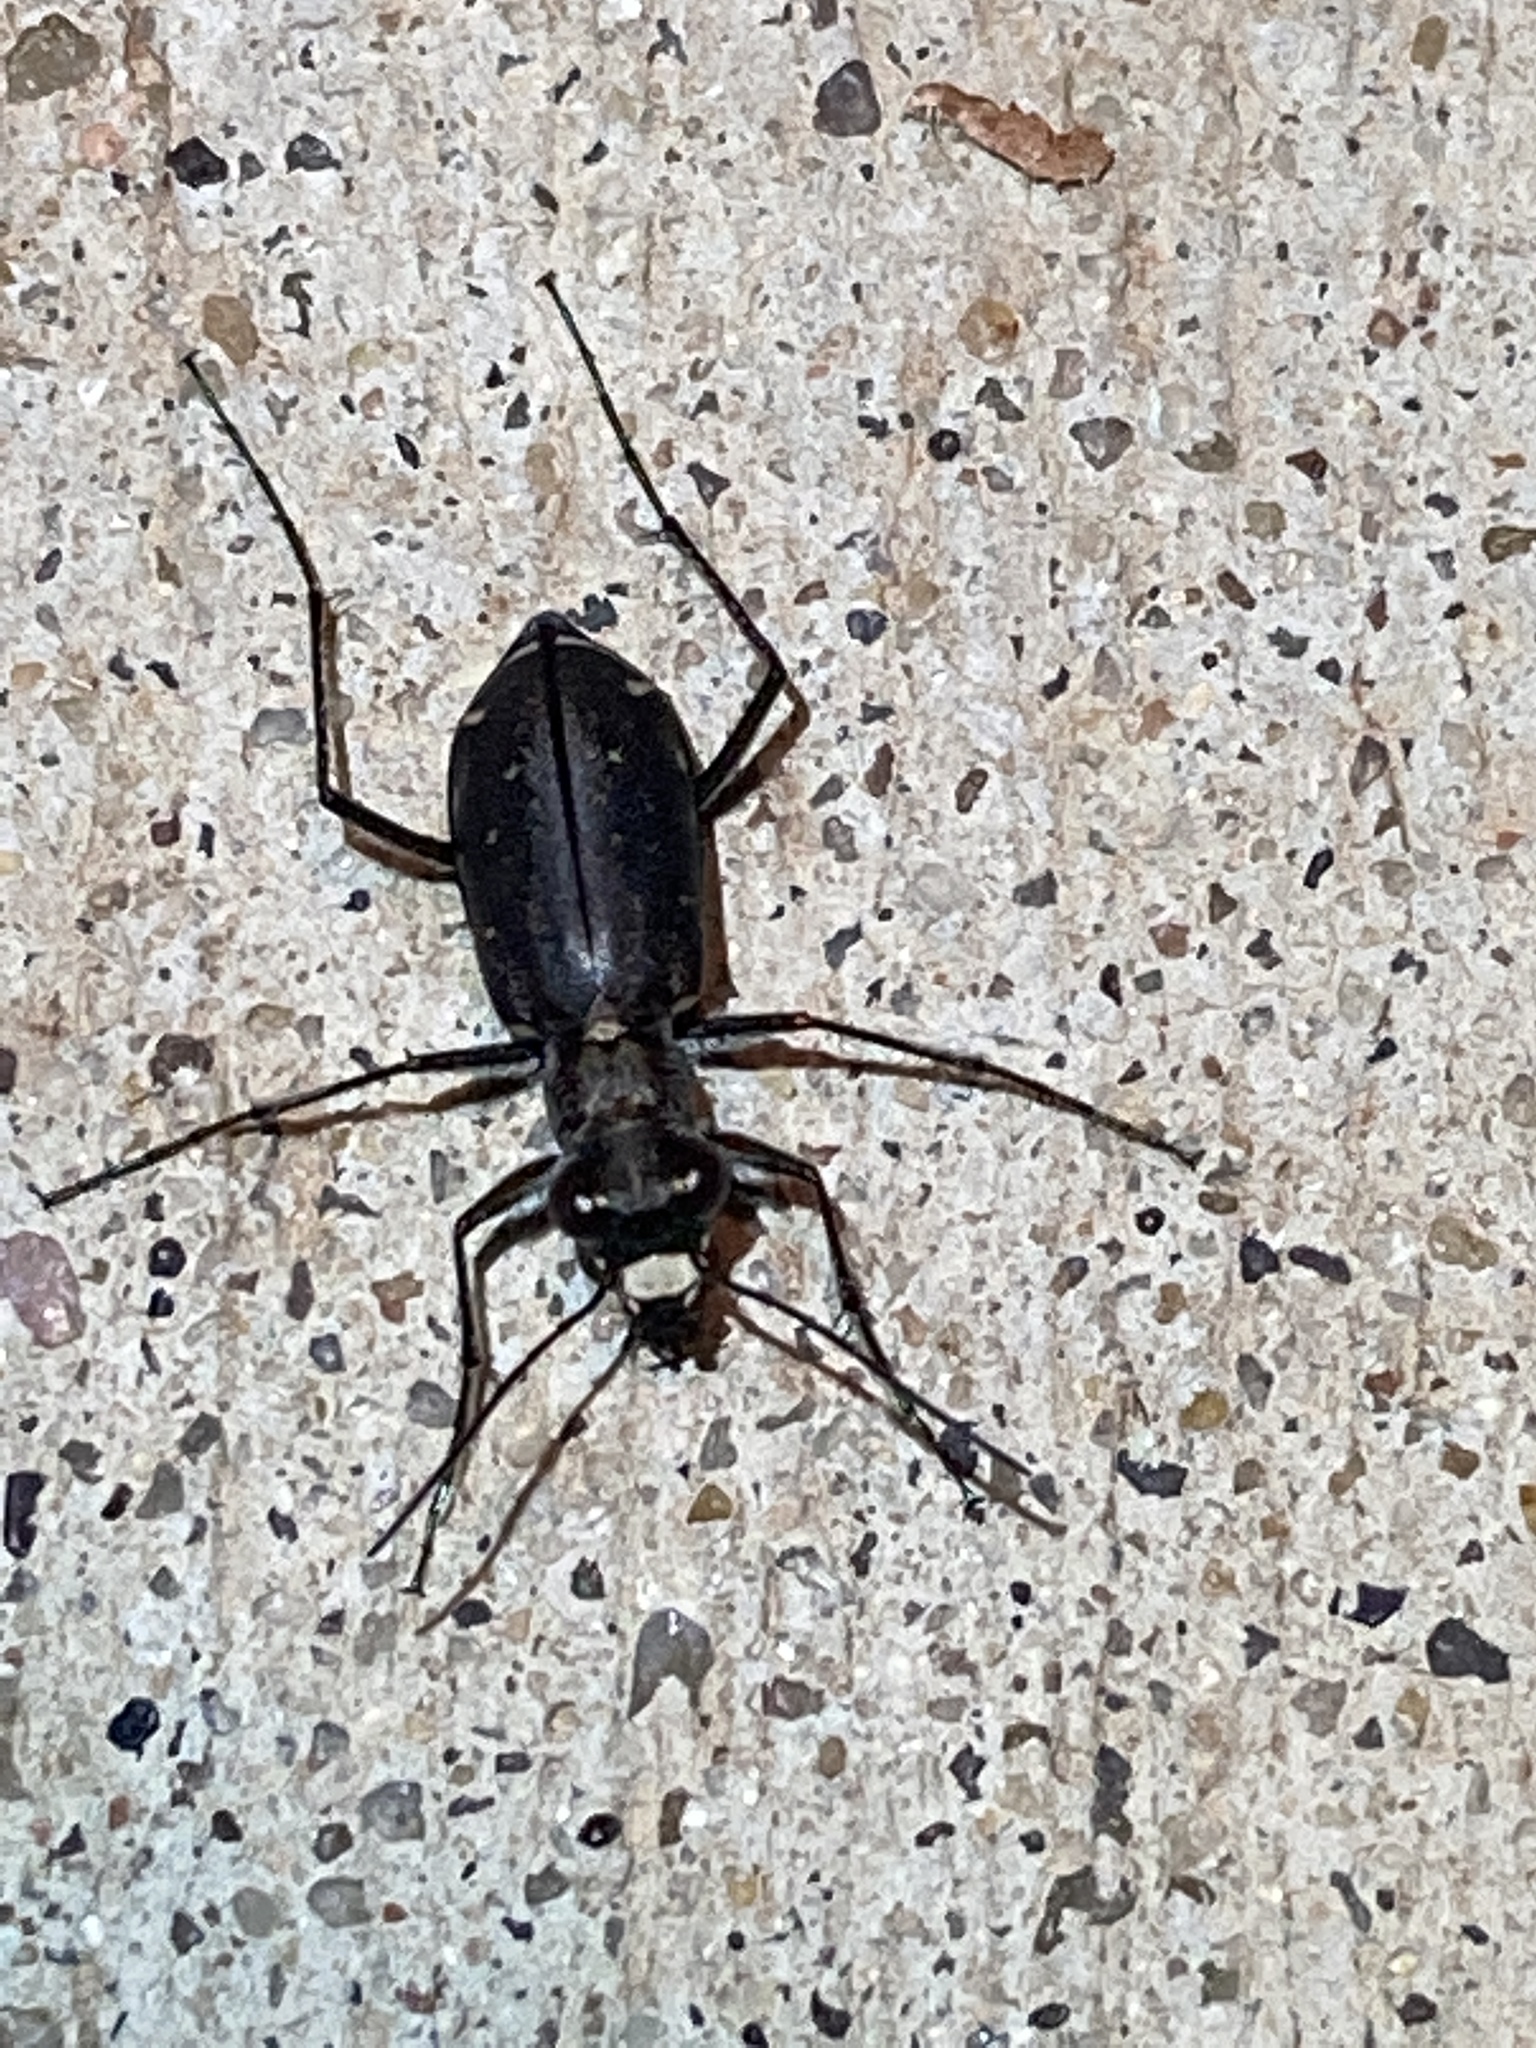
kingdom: Animalia
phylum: Arthropoda
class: Insecta
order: Coleoptera
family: Carabidae
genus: Cicindela
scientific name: Cicindela punctulata
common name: Punctured tiger beetle
